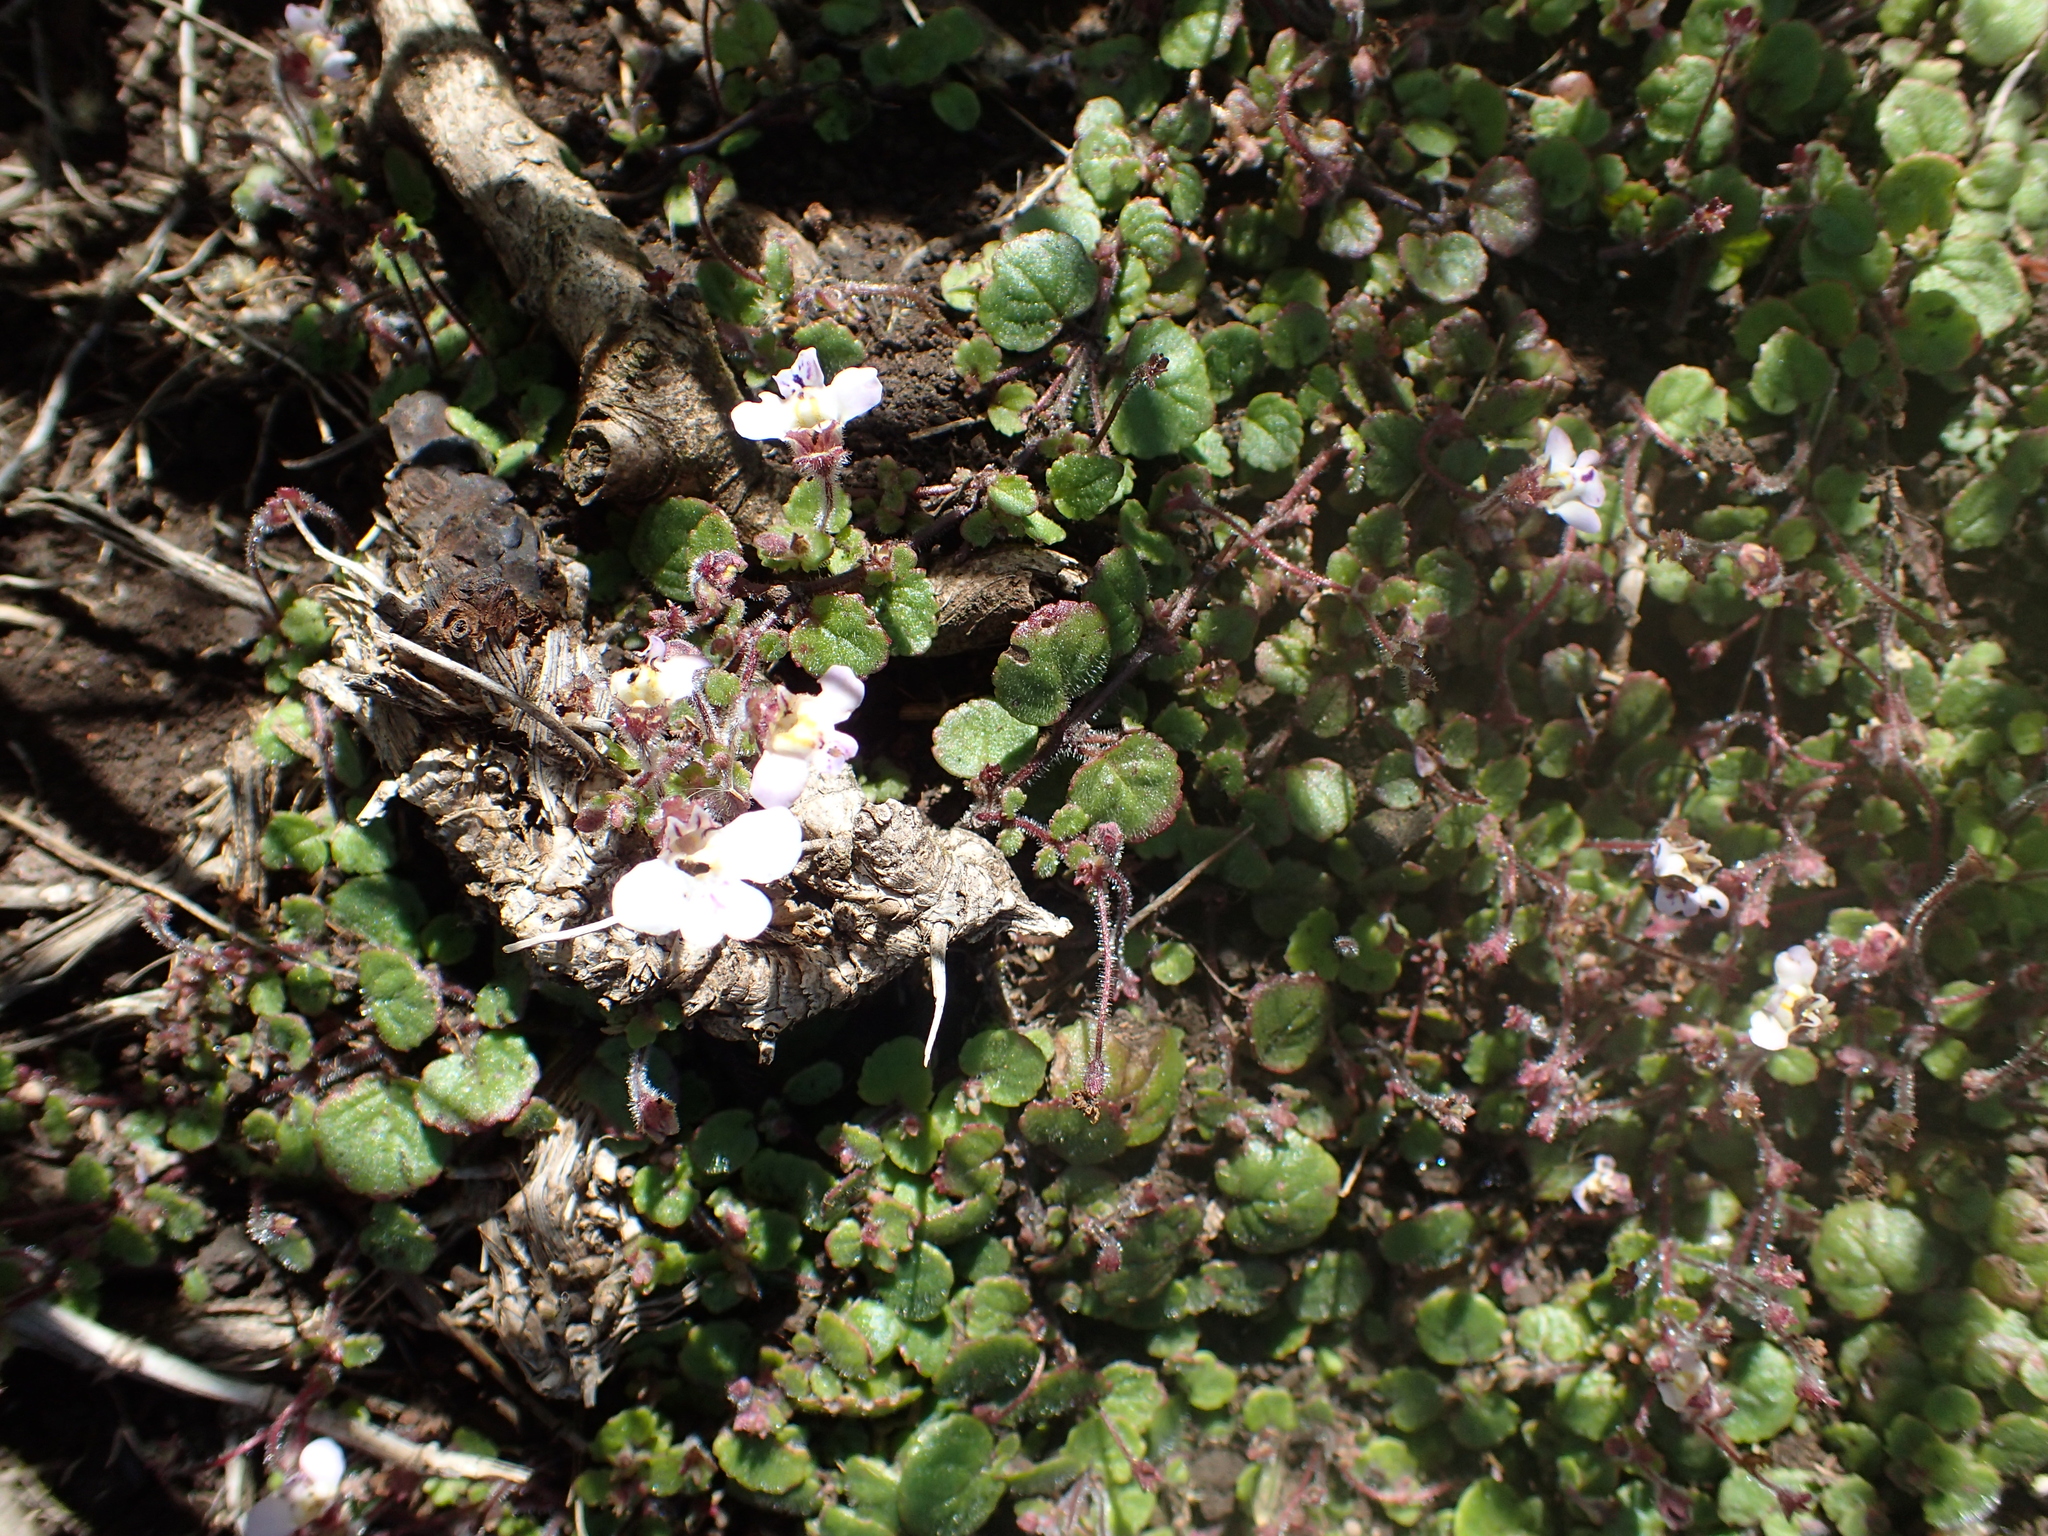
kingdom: Plantae
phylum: Tracheophyta
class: Magnoliopsida
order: Lamiales
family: Scrophulariaceae
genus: Diclis
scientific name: Diclis reptans
